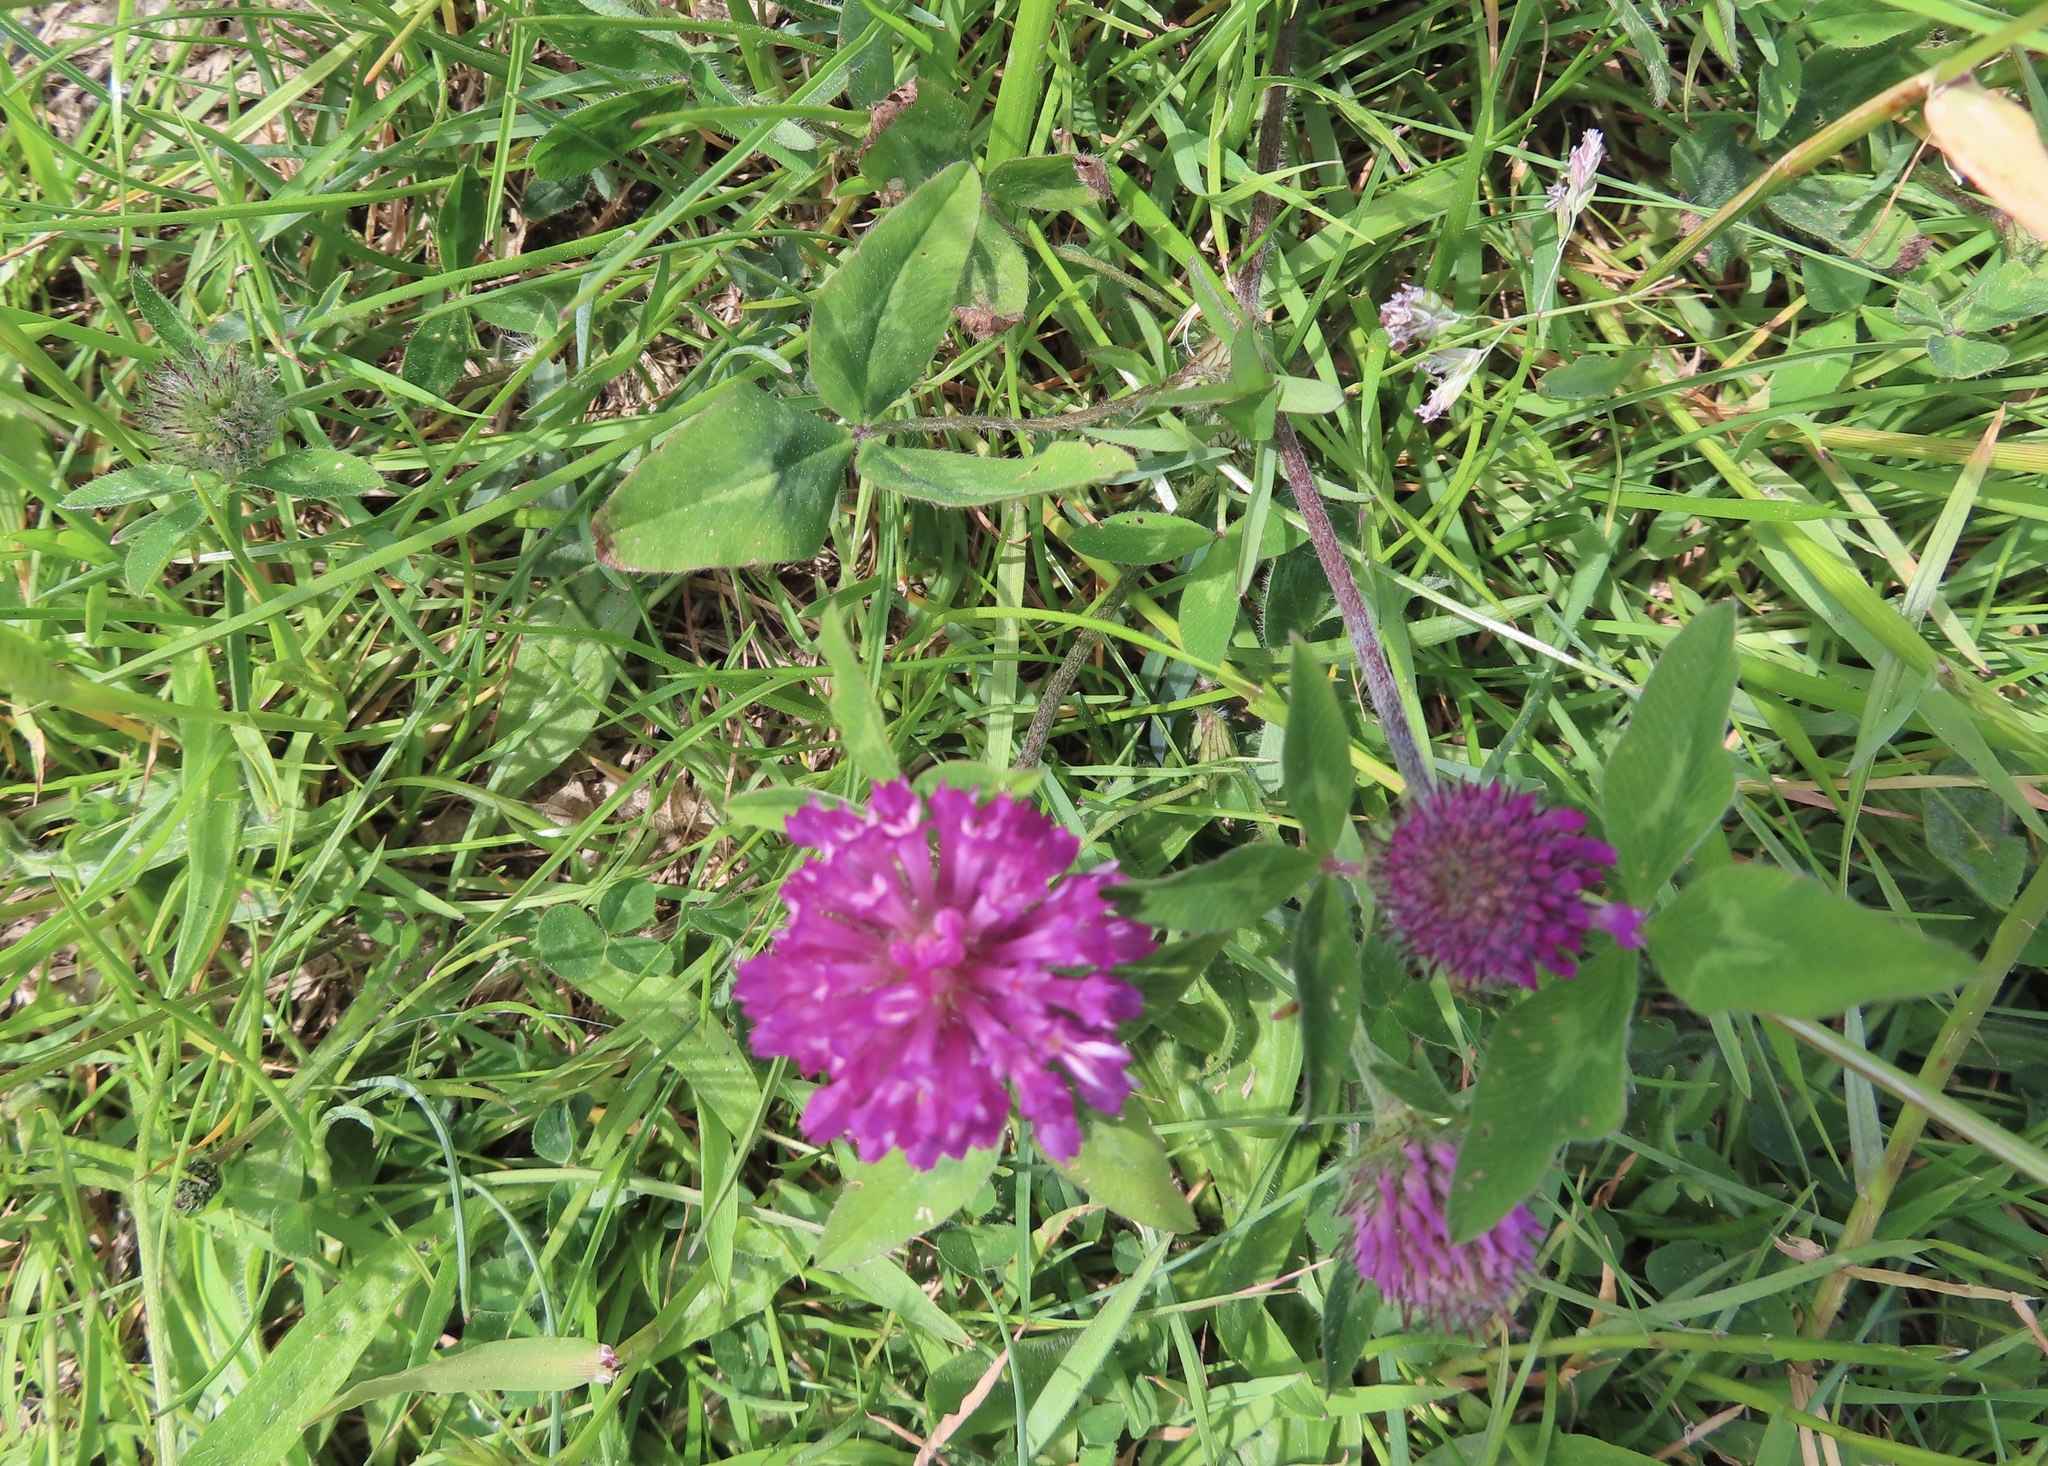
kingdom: Plantae
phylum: Tracheophyta
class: Magnoliopsida
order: Fabales
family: Fabaceae
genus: Trifolium
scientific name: Trifolium pratense
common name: Red clover
